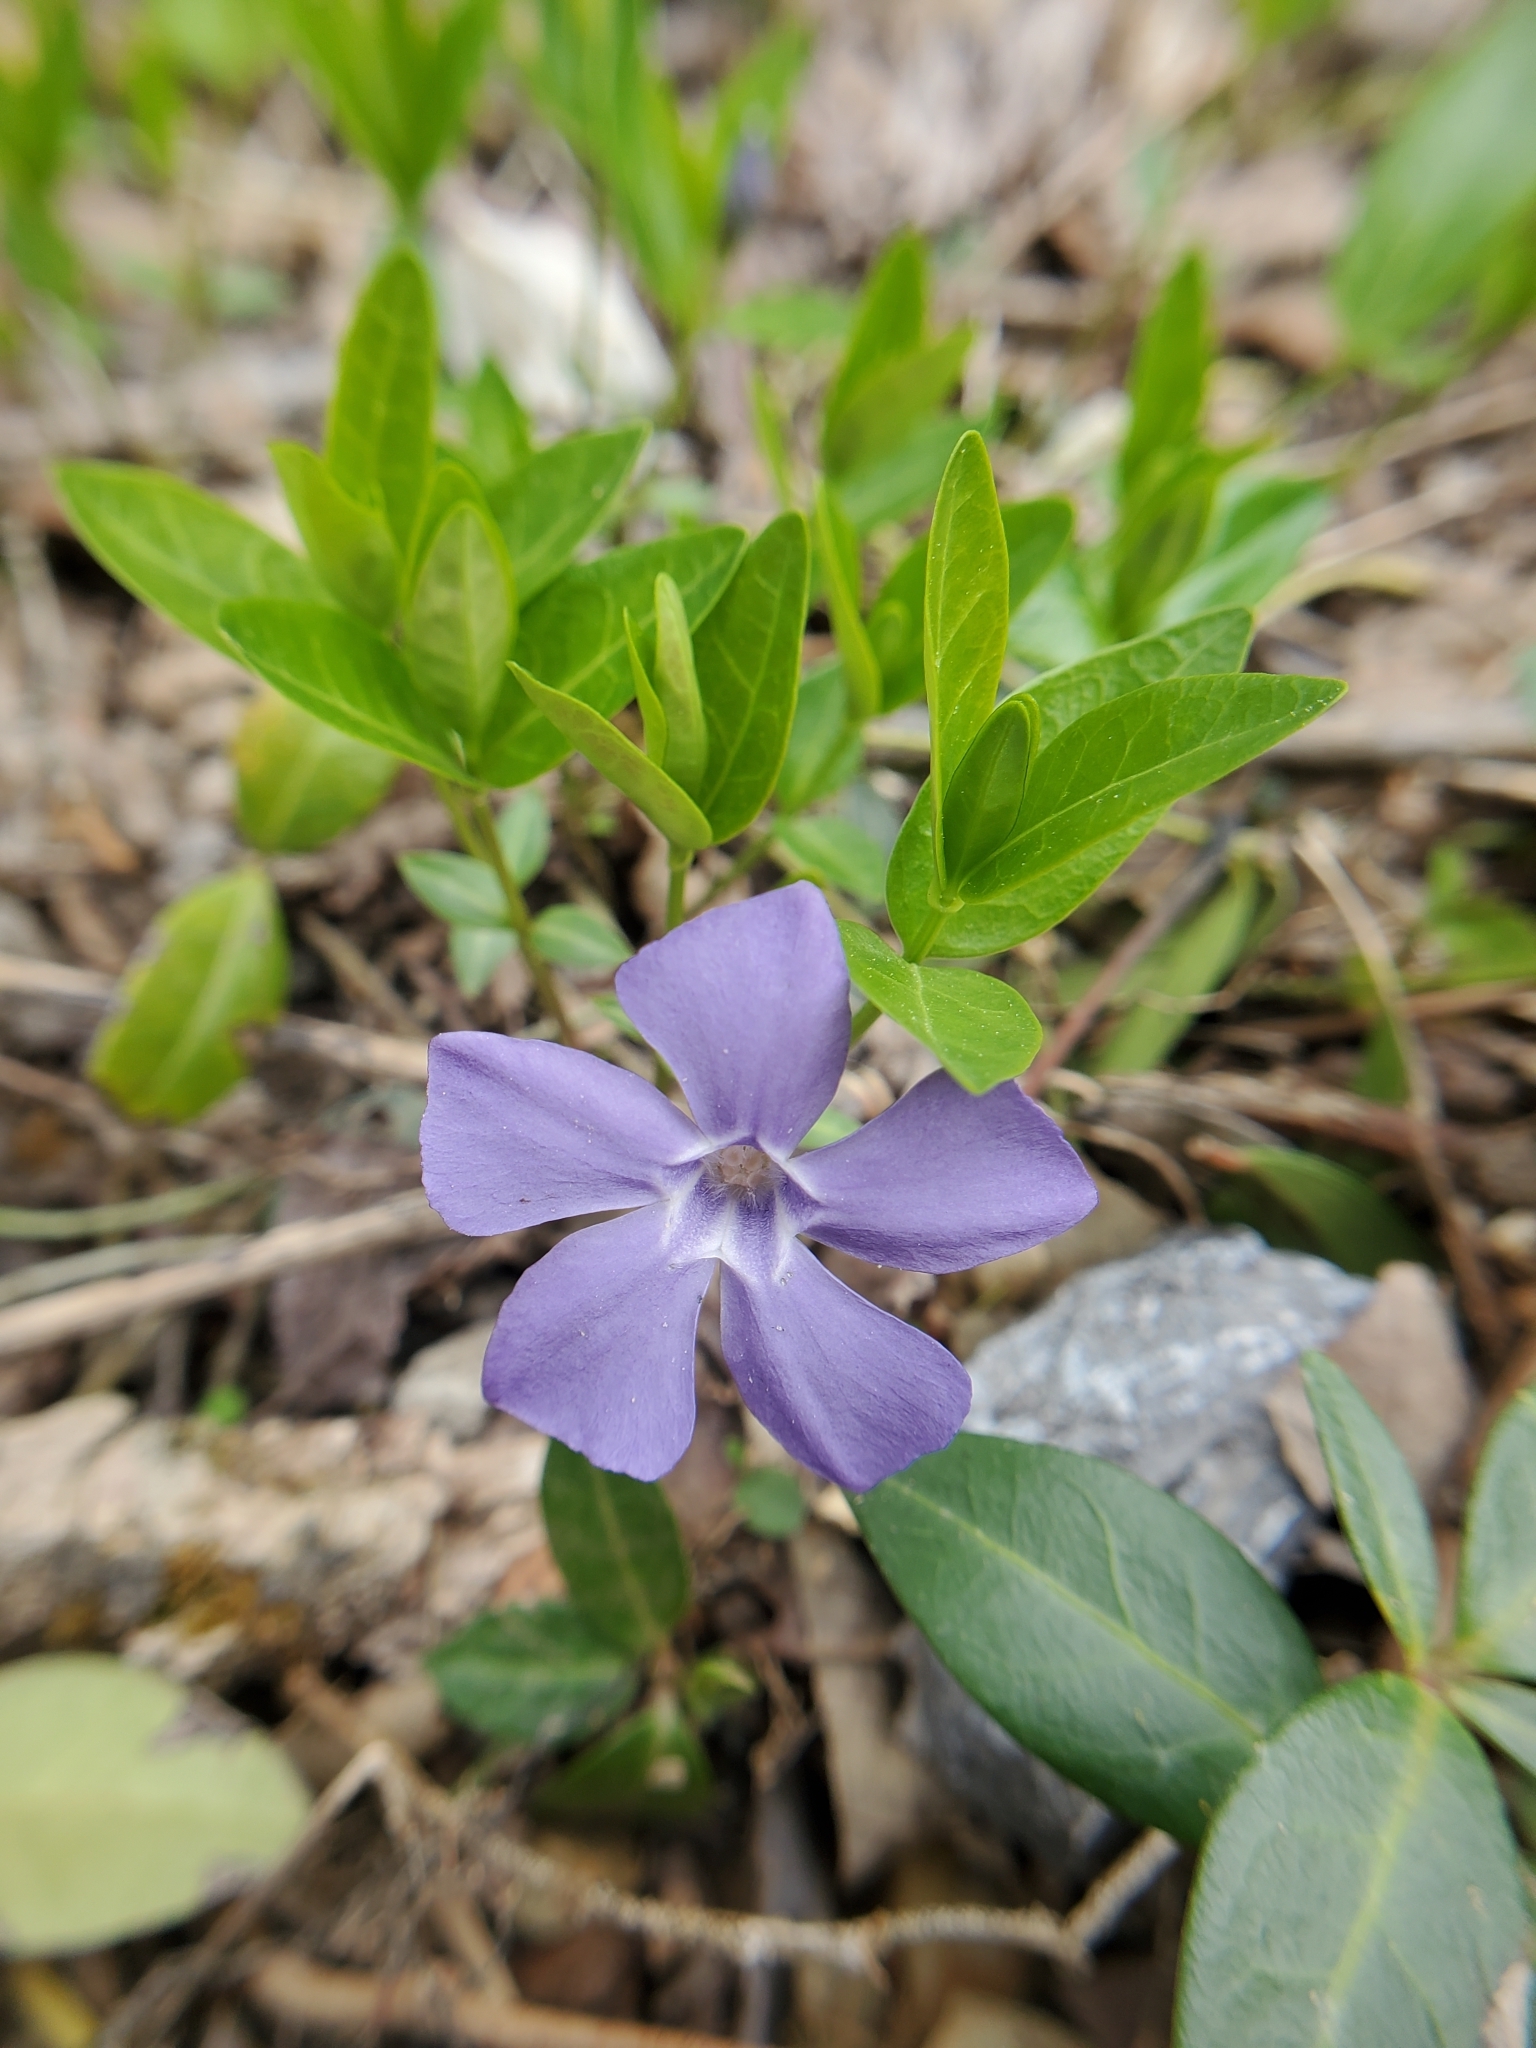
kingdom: Plantae
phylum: Tracheophyta
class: Magnoliopsida
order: Gentianales
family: Apocynaceae
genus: Vinca
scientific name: Vinca minor
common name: Lesser periwinkle
